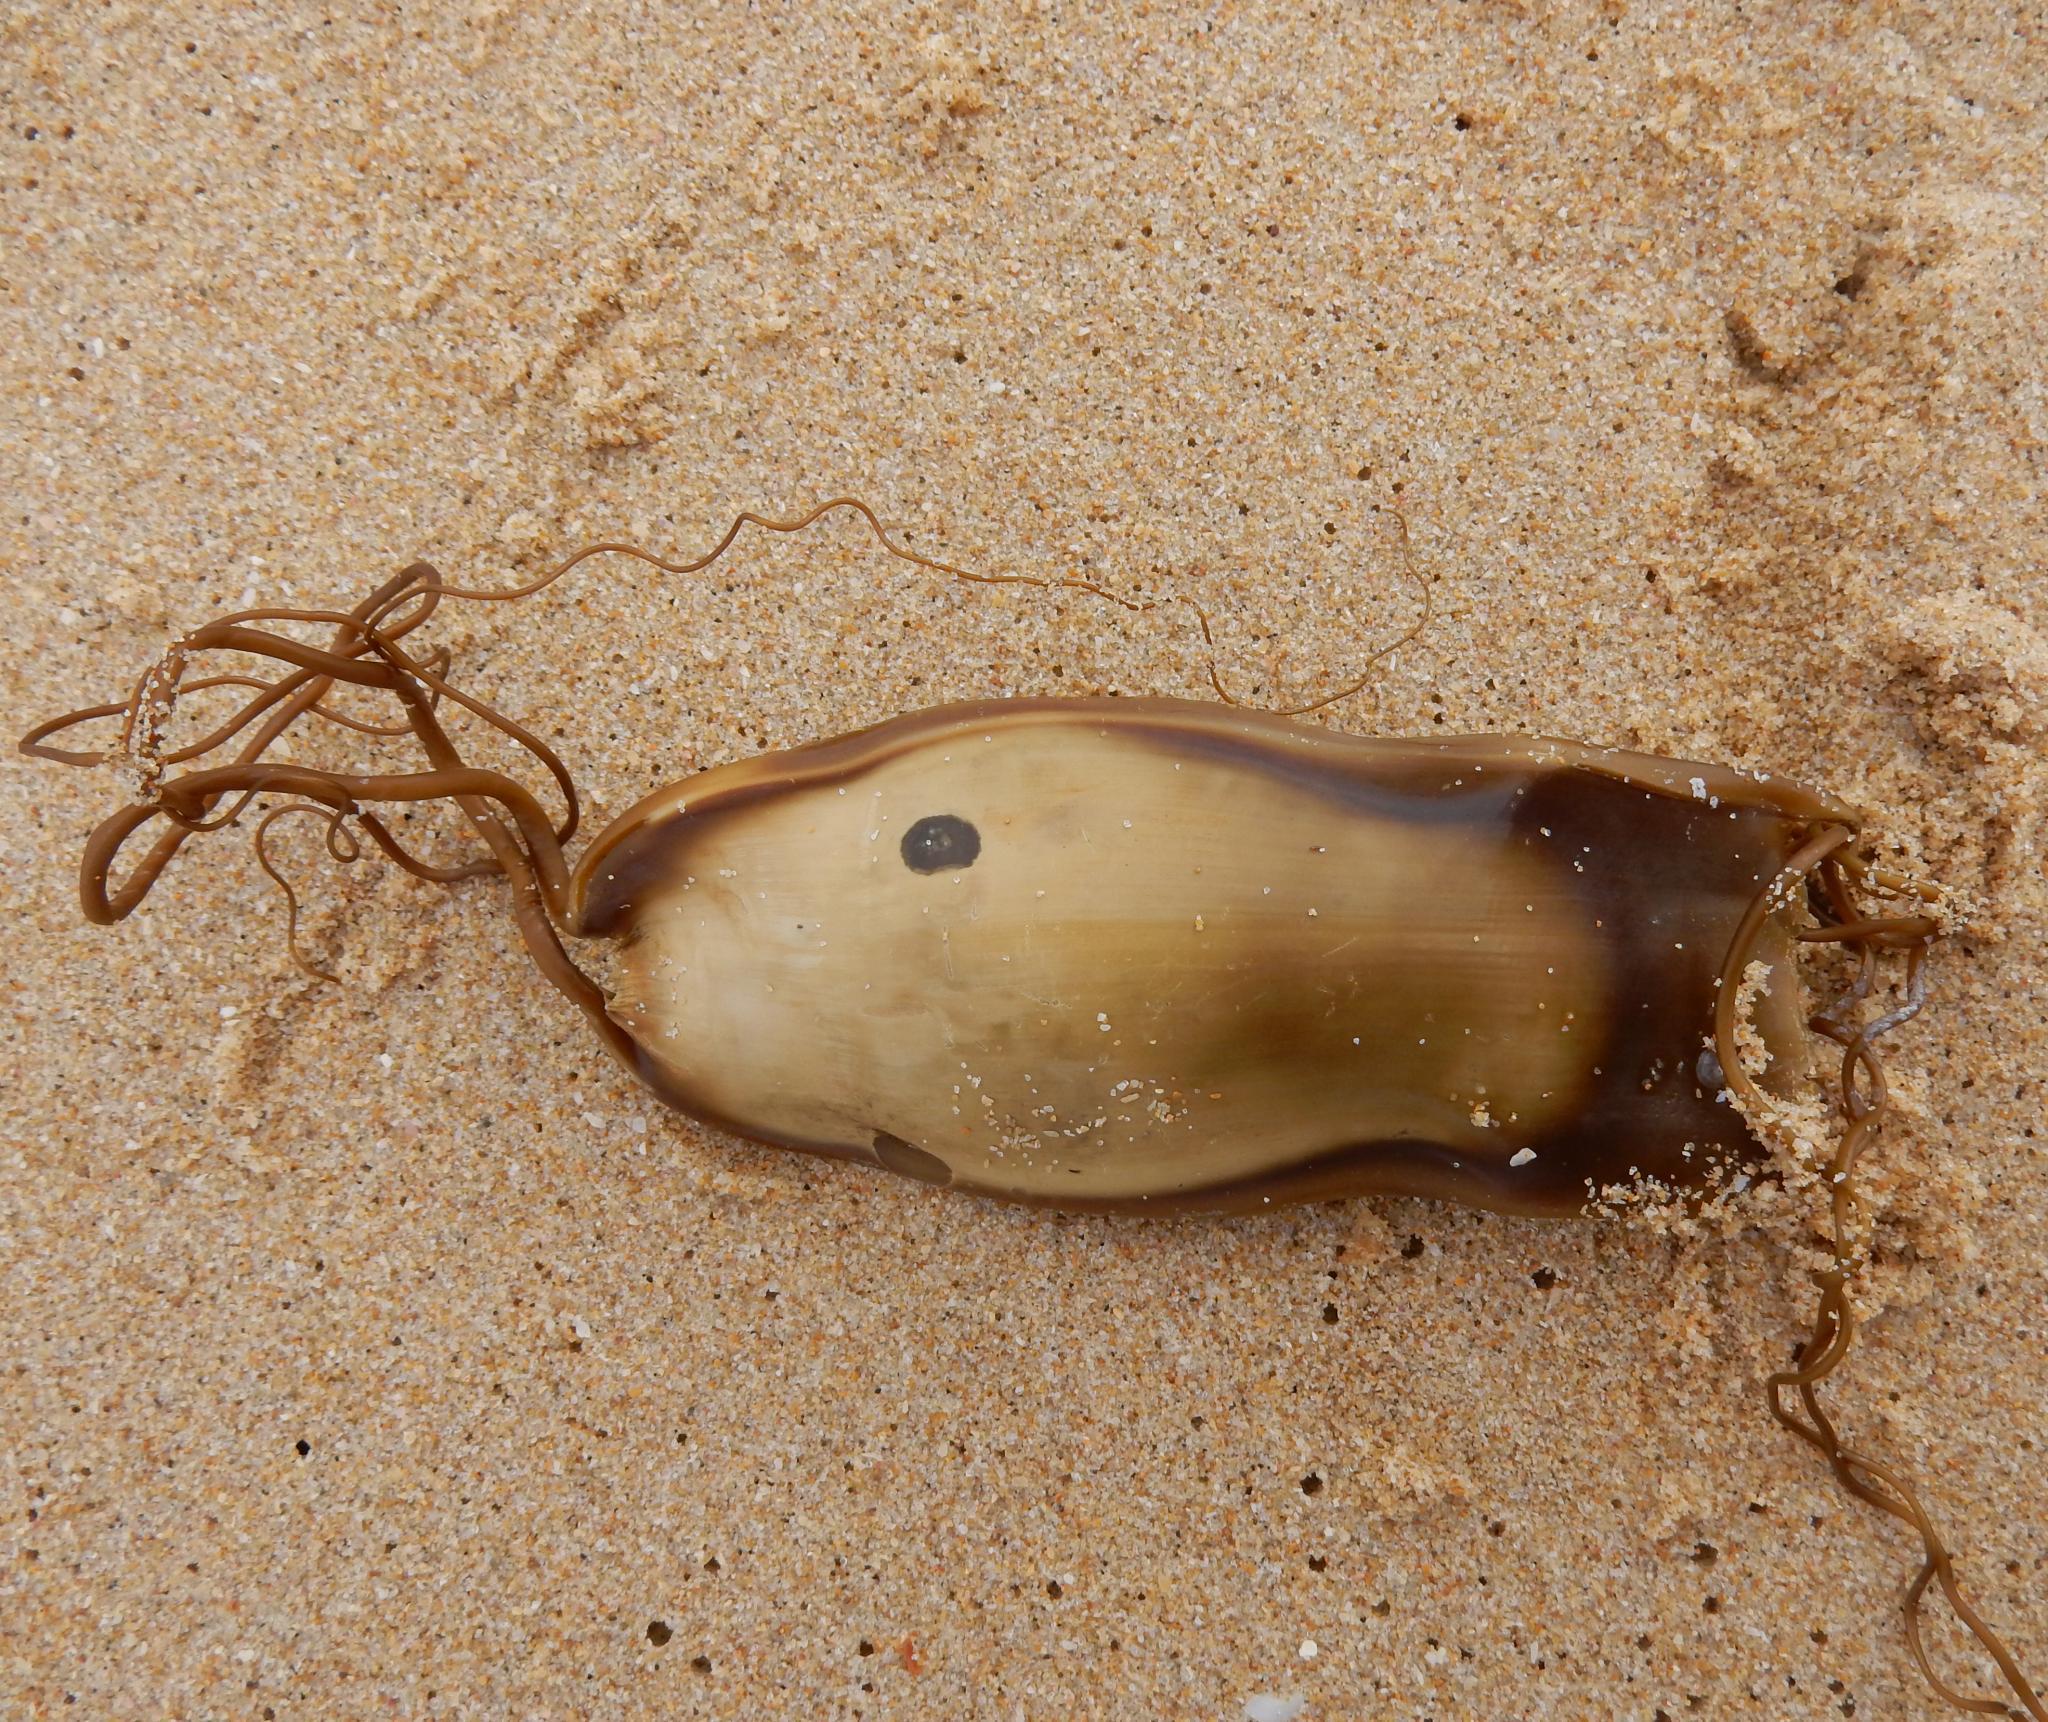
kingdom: Animalia
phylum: Chordata
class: Elasmobranchii
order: Carcharhiniformes
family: Scyliorhinidae
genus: Poroderma
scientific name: Poroderma africanum
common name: Pyjama shark
